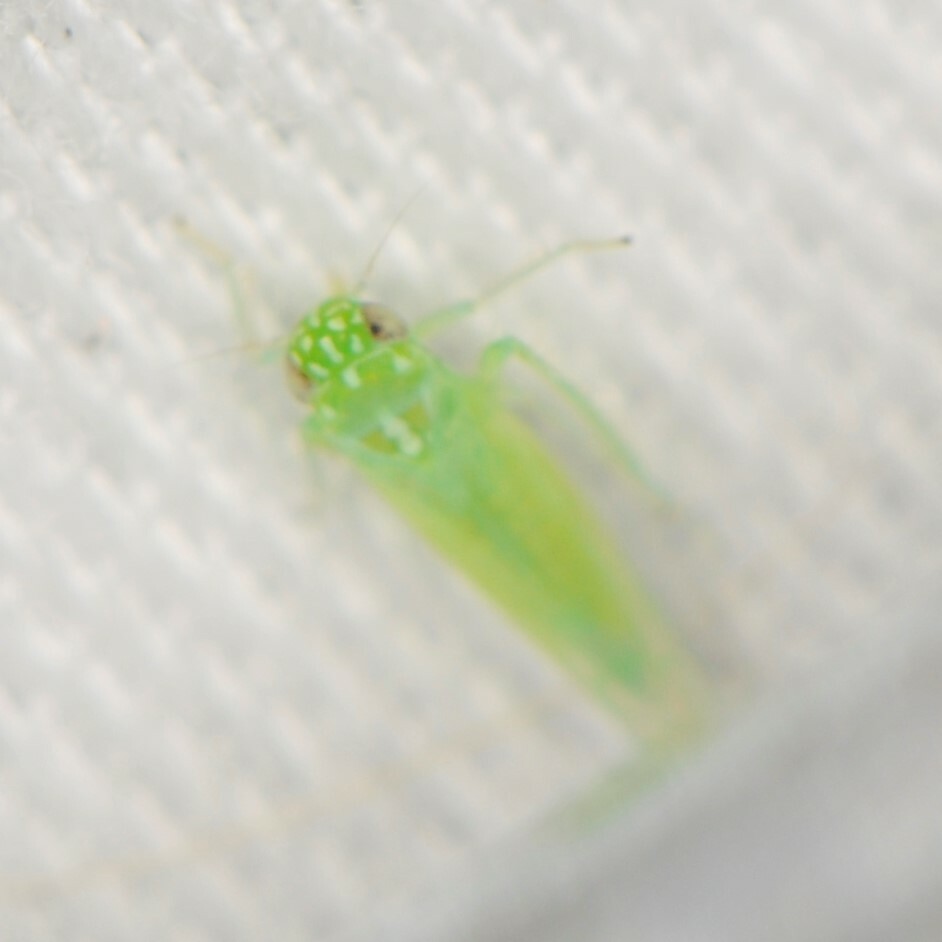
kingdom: Animalia
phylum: Arthropoda
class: Insecta
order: Hemiptera
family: Cicadellidae
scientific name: Cicadellidae
